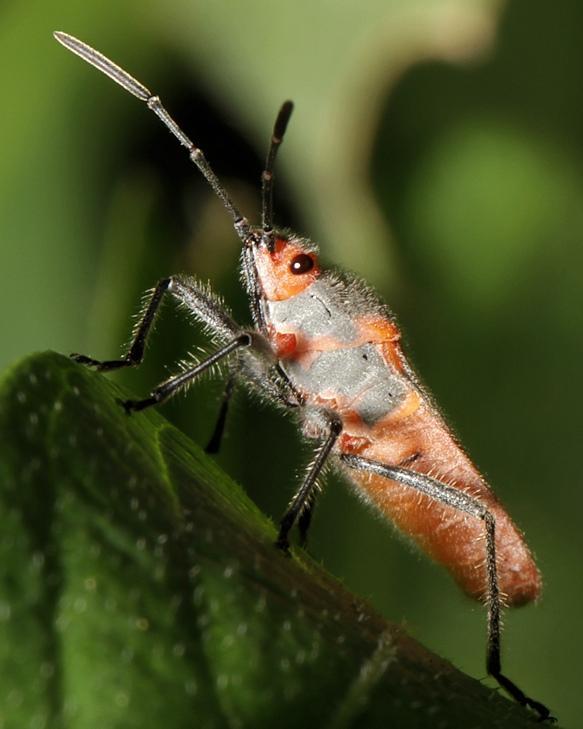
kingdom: Animalia
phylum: Arthropoda
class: Insecta
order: Hemiptera
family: Lygaeidae
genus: Caenocoris
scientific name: Caenocoris nerii
